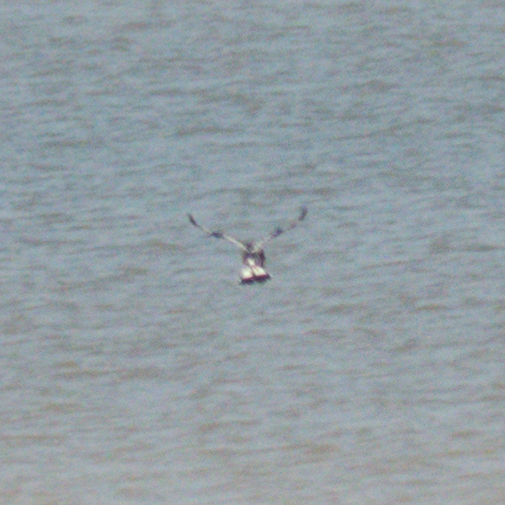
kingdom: Animalia
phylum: Chordata
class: Aves
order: Coraciiformes
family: Alcedinidae
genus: Ceryle
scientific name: Ceryle rudis
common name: Pied kingfisher
